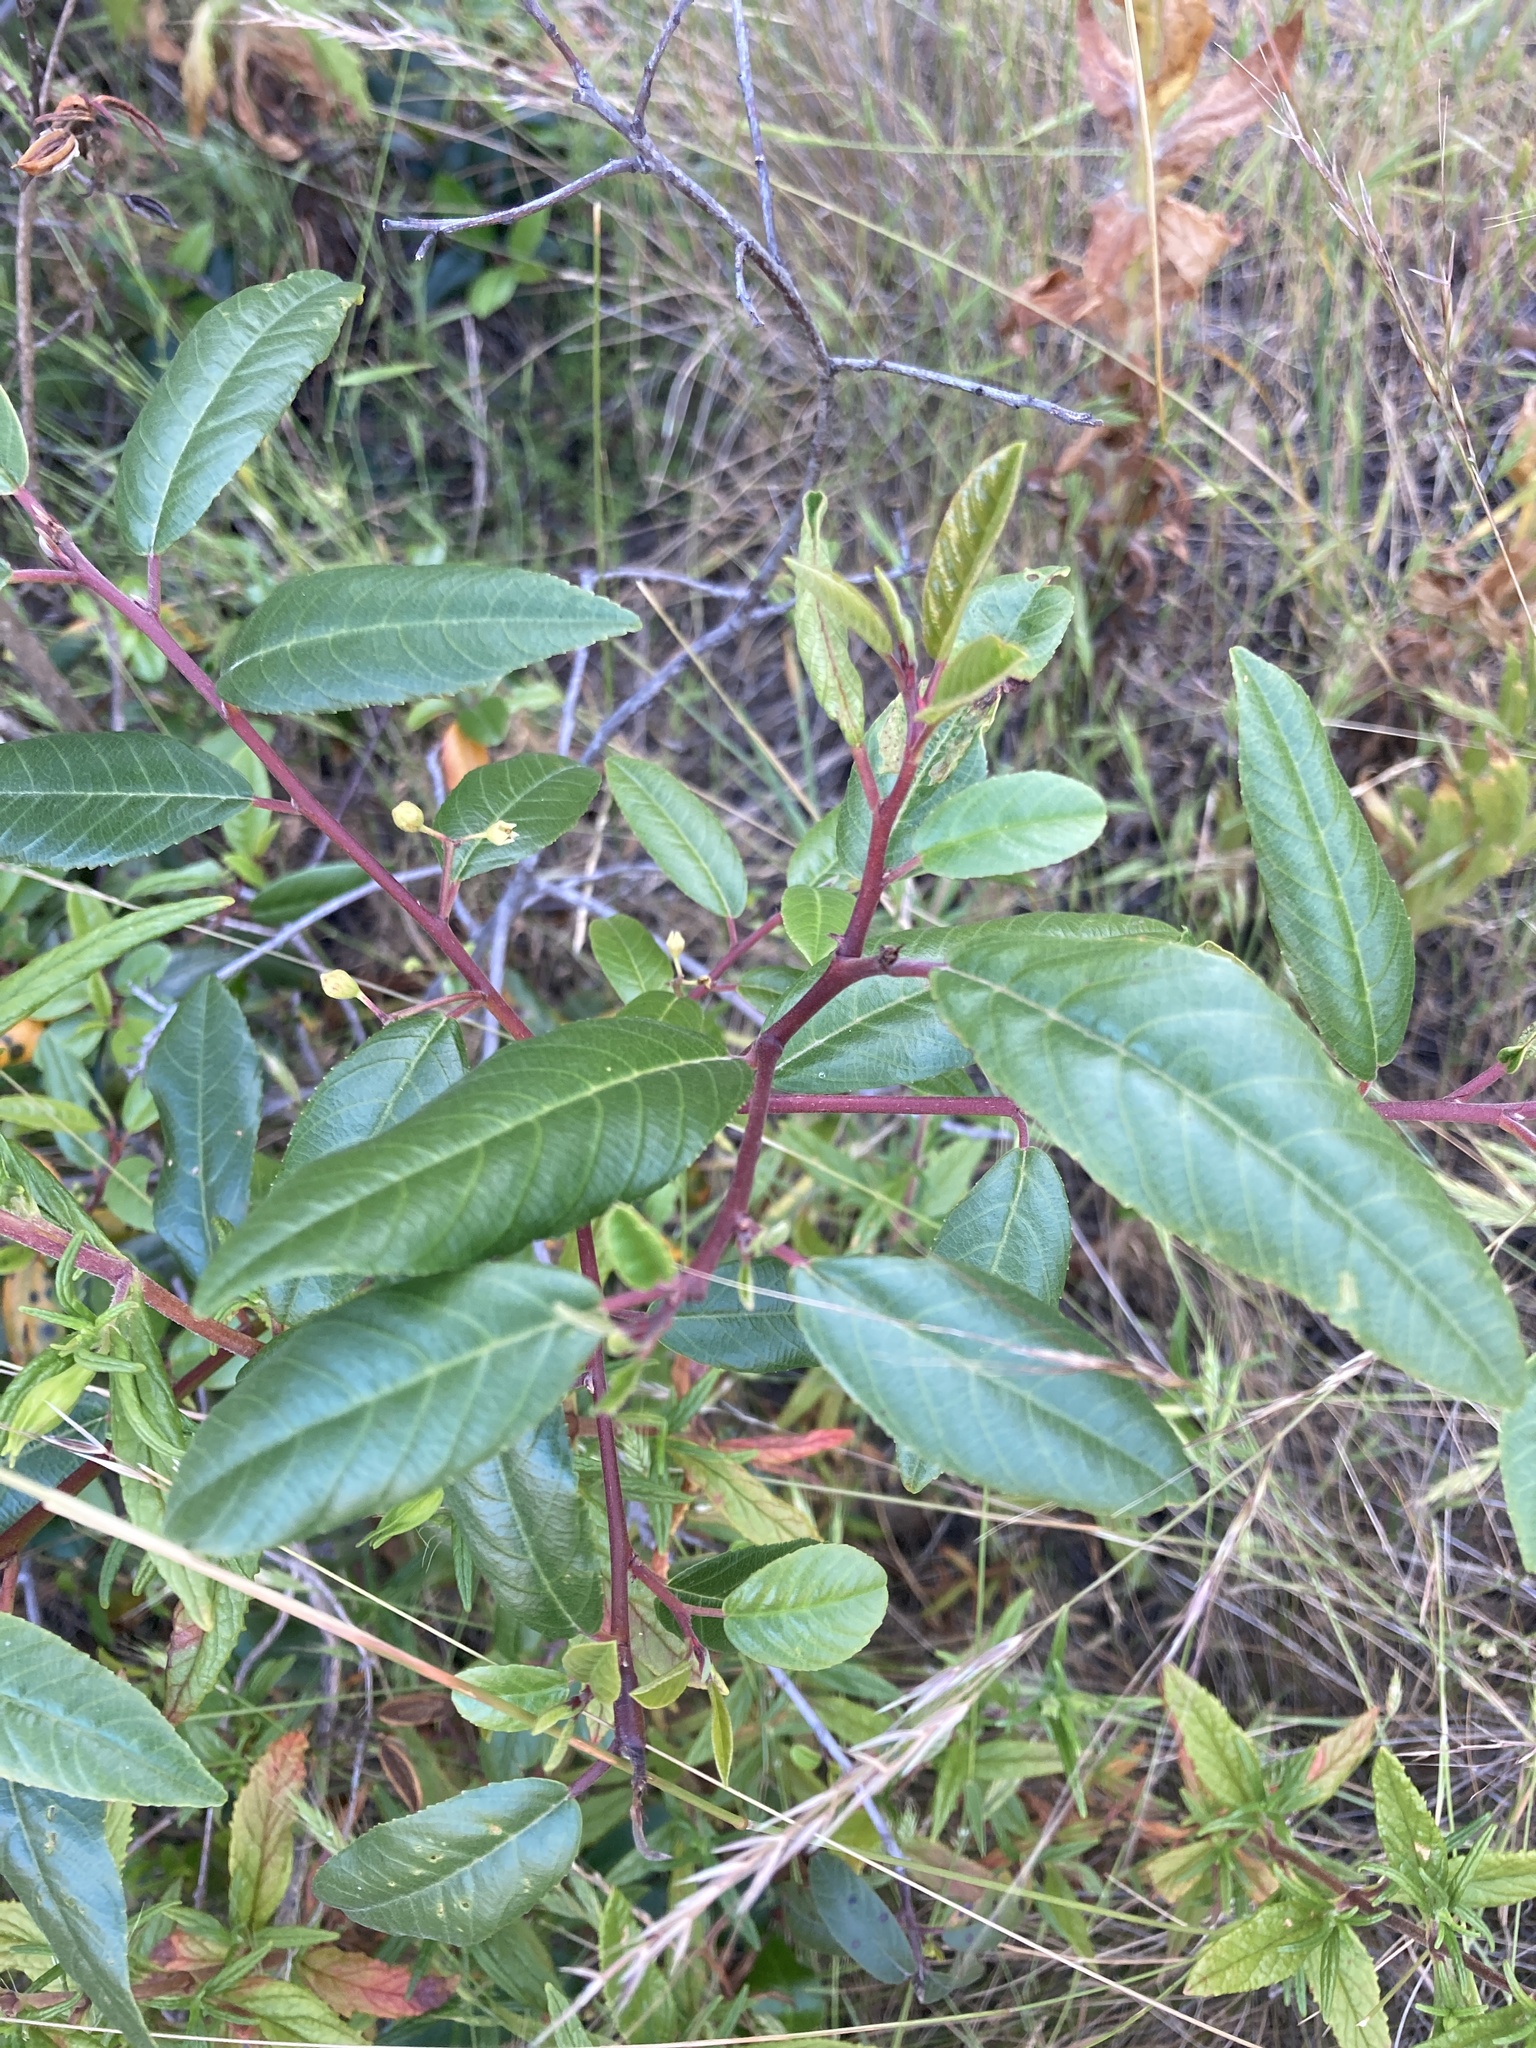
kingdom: Plantae
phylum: Tracheophyta
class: Magnoliopsida
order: Rosales
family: Rhamnaceae
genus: Frangula
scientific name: Frangula californica
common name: California buckthorn
